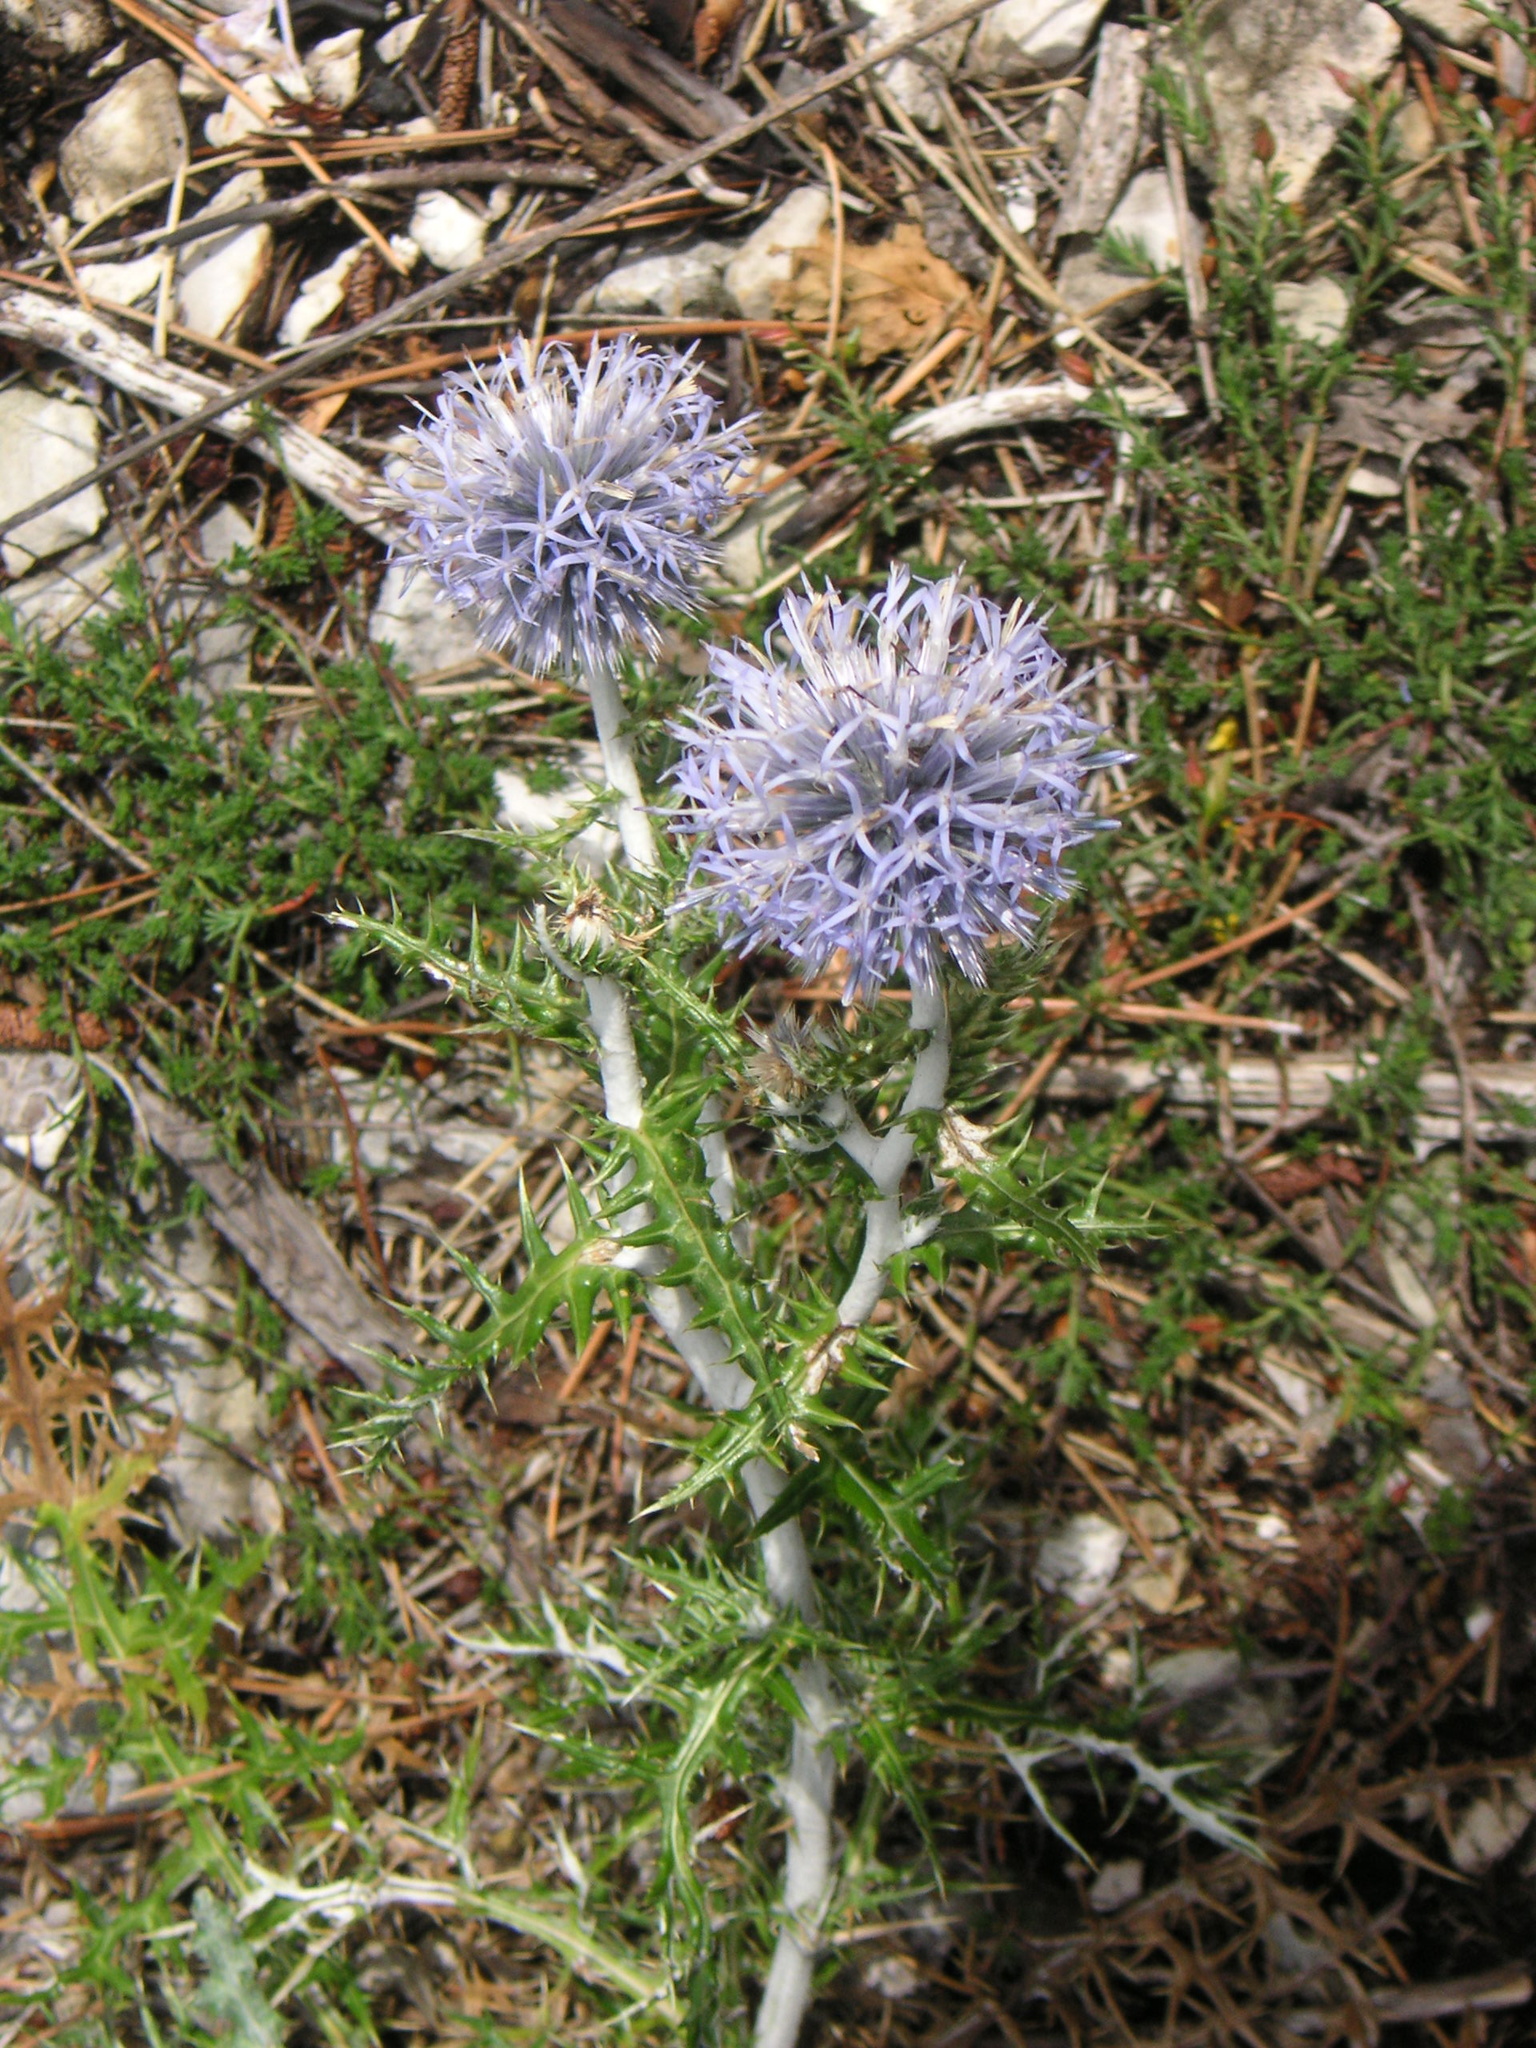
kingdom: Plantae
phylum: Tracheophyta
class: Magnoliopsida
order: Asterales
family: Asteraceae
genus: Echinops
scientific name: Echinops ritro
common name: Globe thistle
